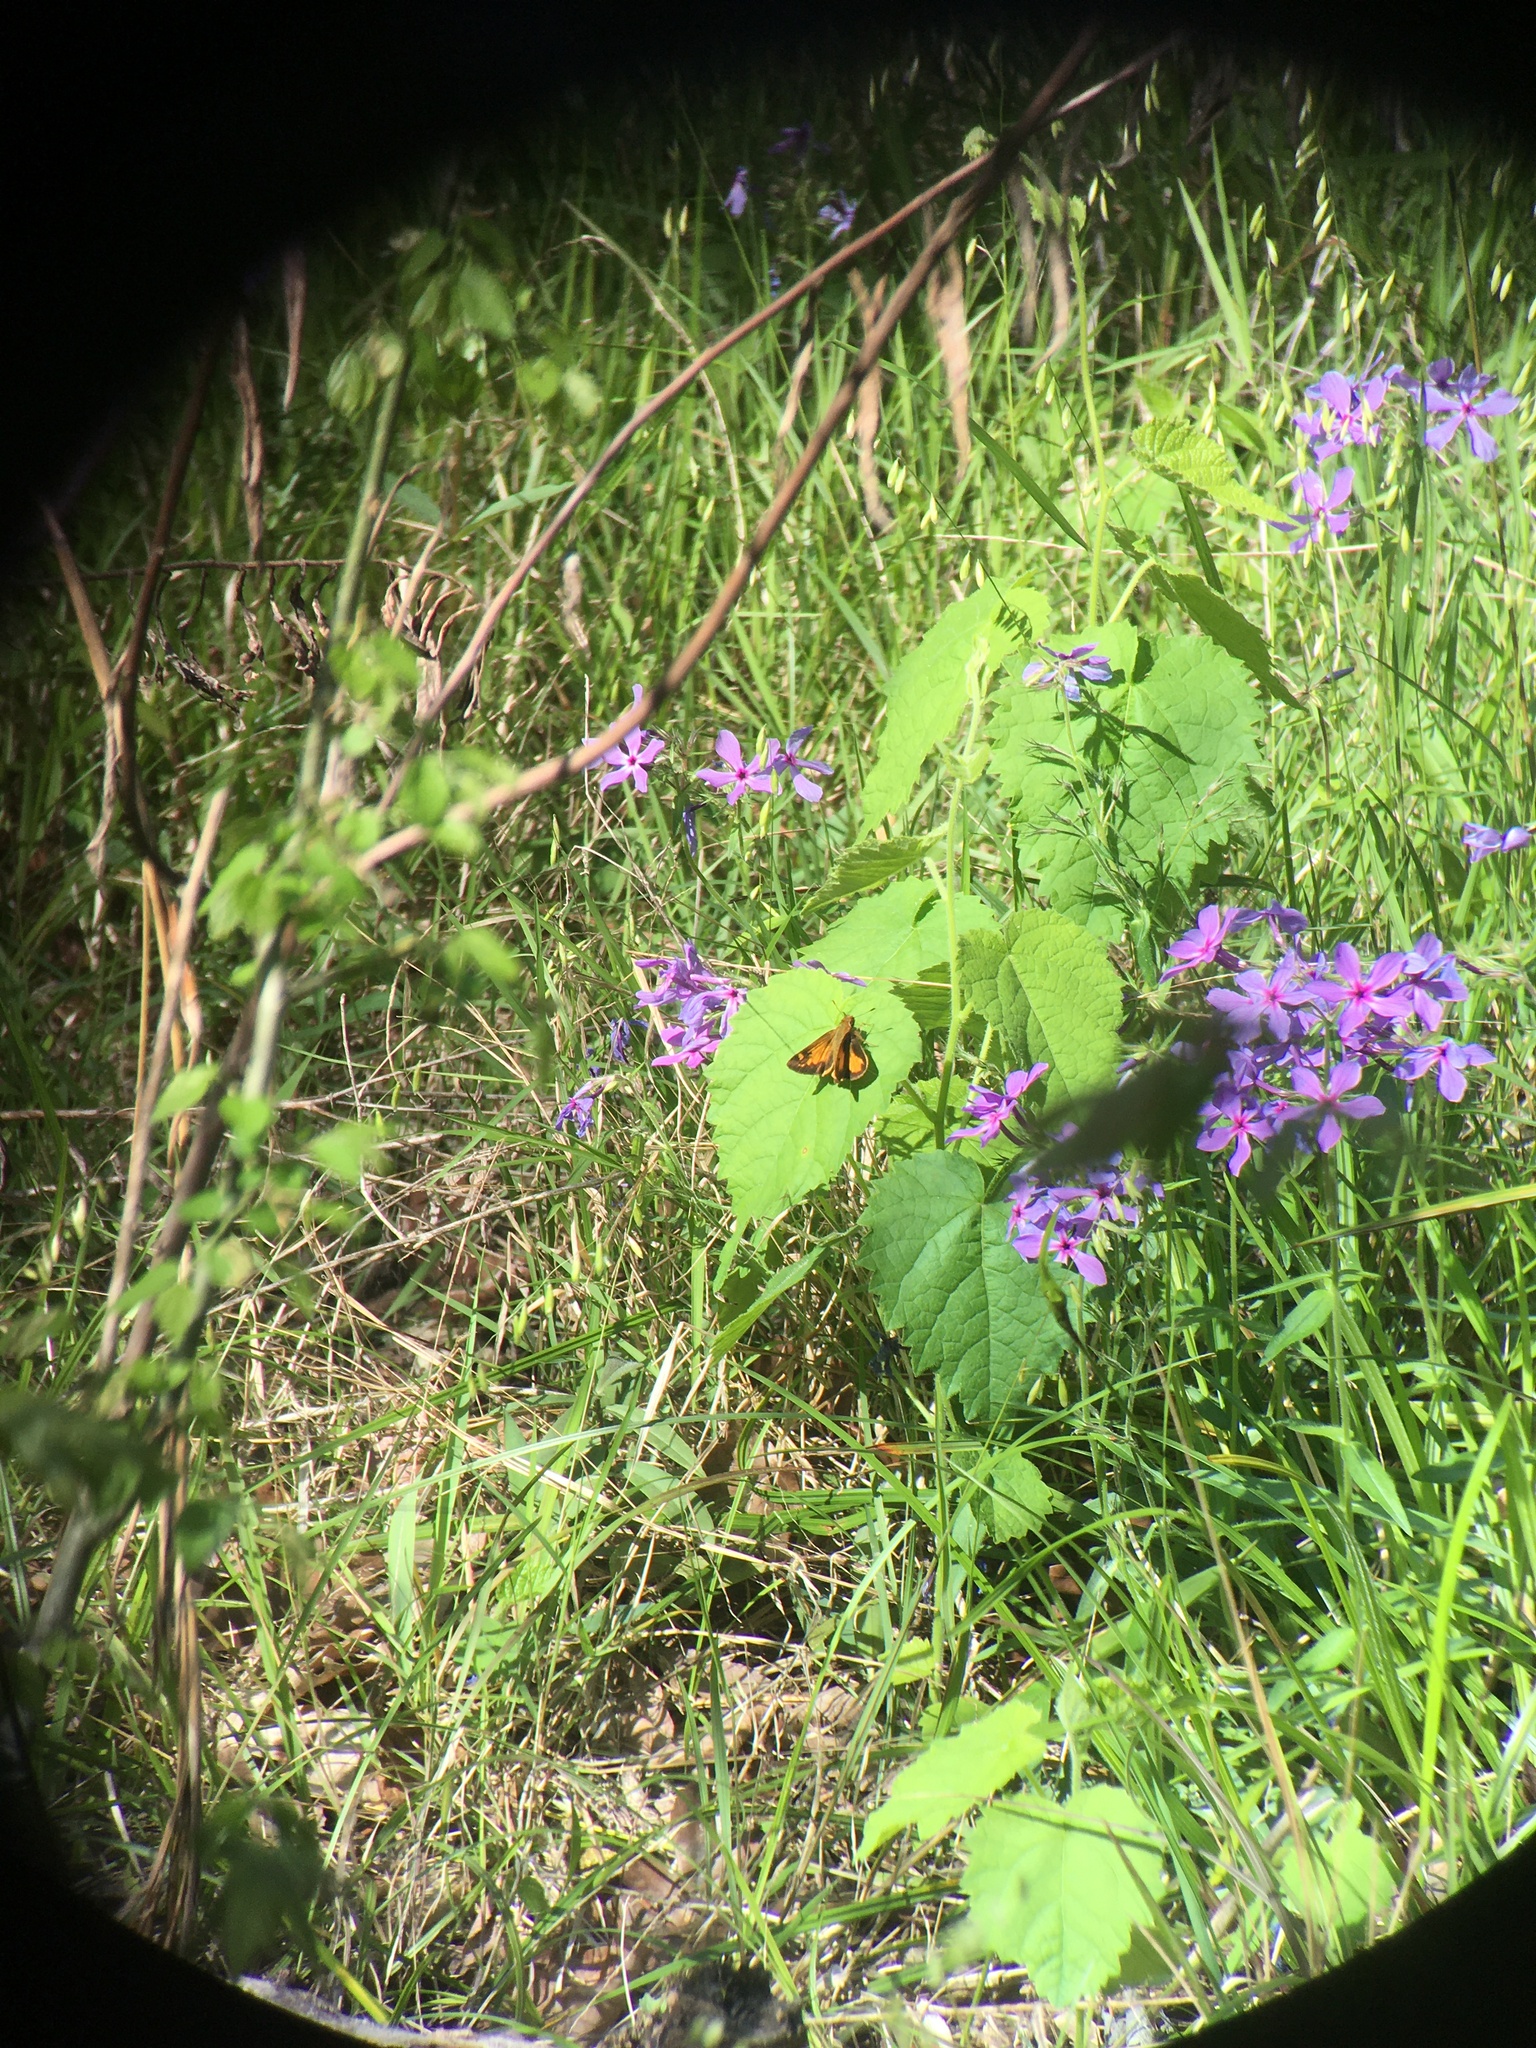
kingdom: Animalia
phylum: Arthropoda
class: Insecta
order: Lepidoptera
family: Hesperiidae
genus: Lon
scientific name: Lon zabulon
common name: Zabulon skipper
